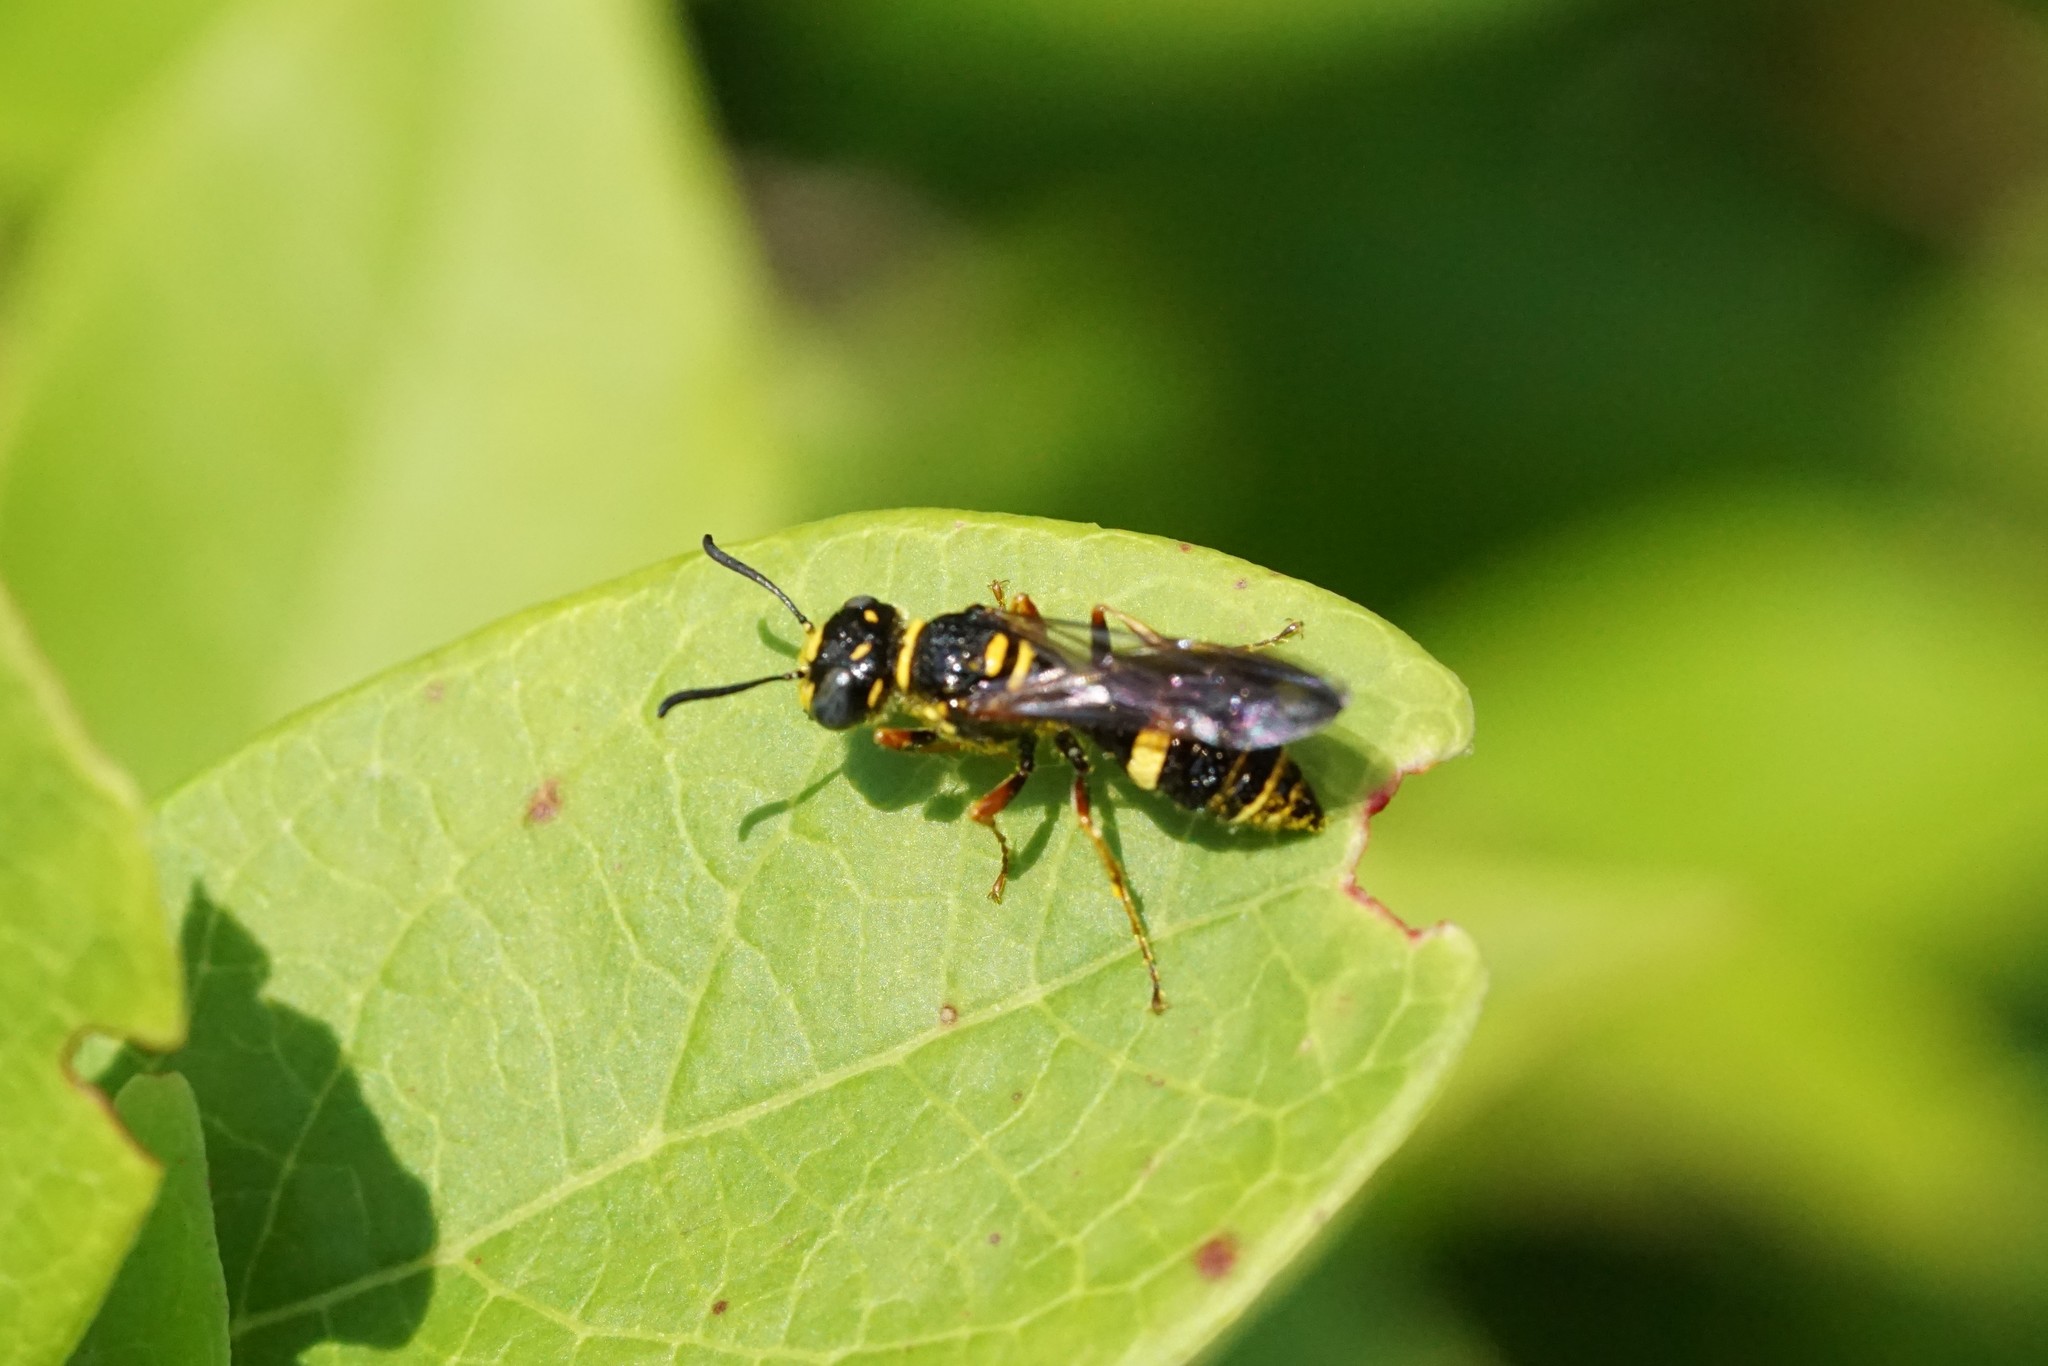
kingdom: Animalia
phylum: Arthropoda
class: Insecta
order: Hymenoptera
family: Crabronidae
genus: Philanthus
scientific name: Philanthus gibbosus
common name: Humped beewolf
